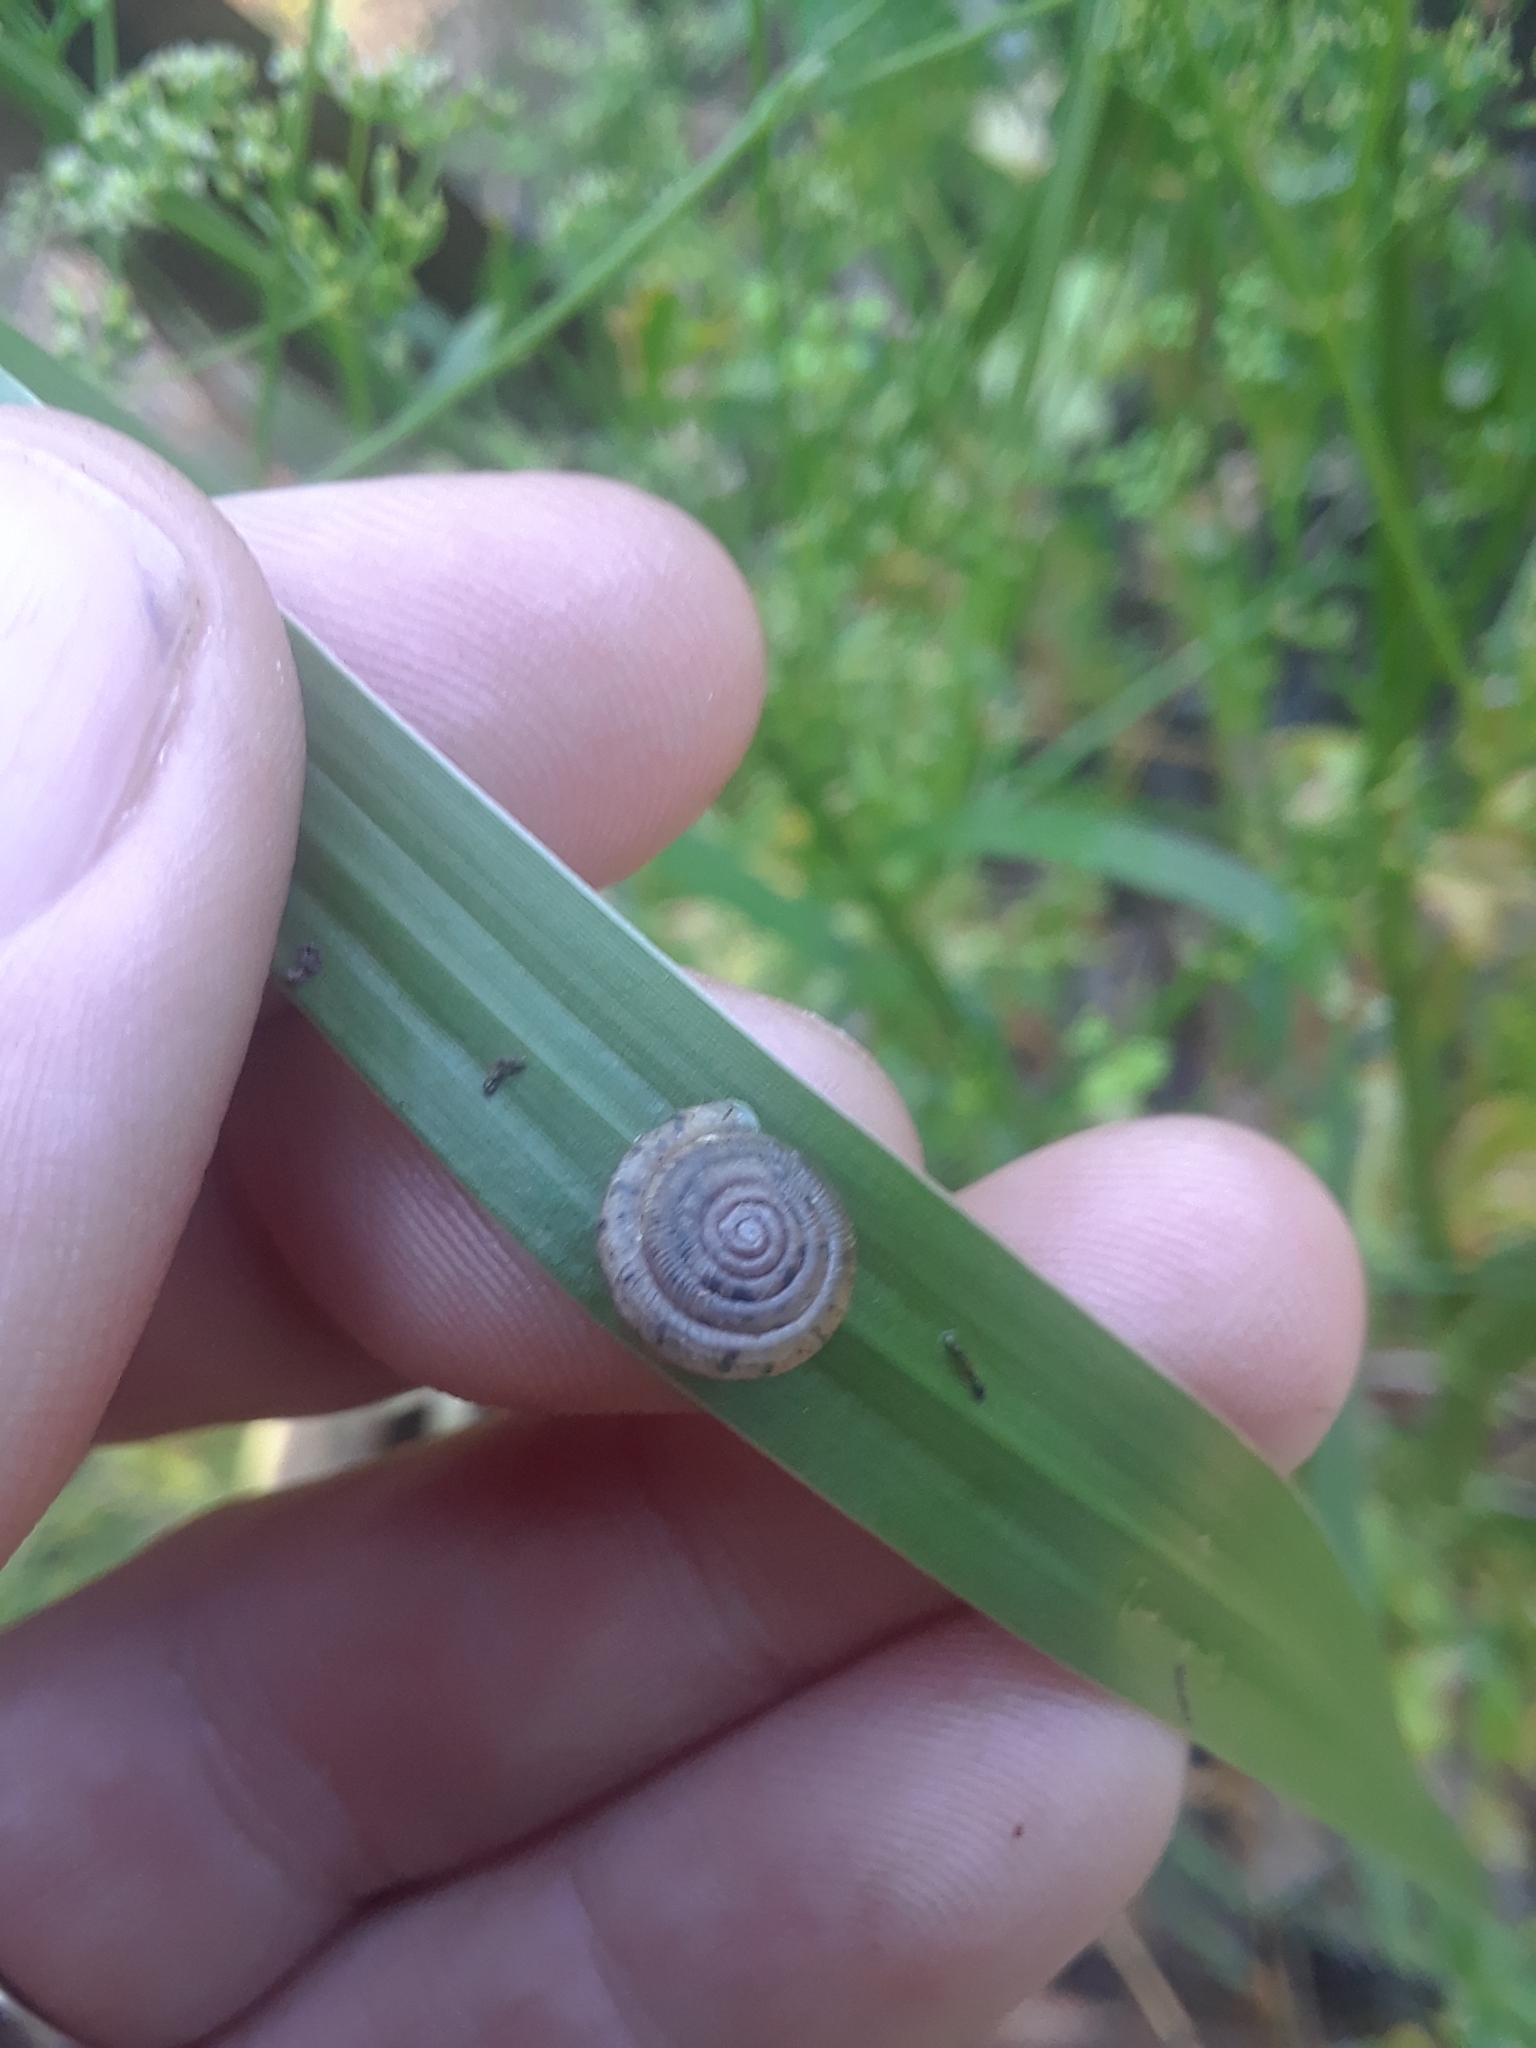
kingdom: Animalia
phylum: Mollusca
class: Gastropoda
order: Stylommatophora
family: Polygyridae
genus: Polygyra
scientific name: Polygyra cereolus
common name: Southern flatcone snail
